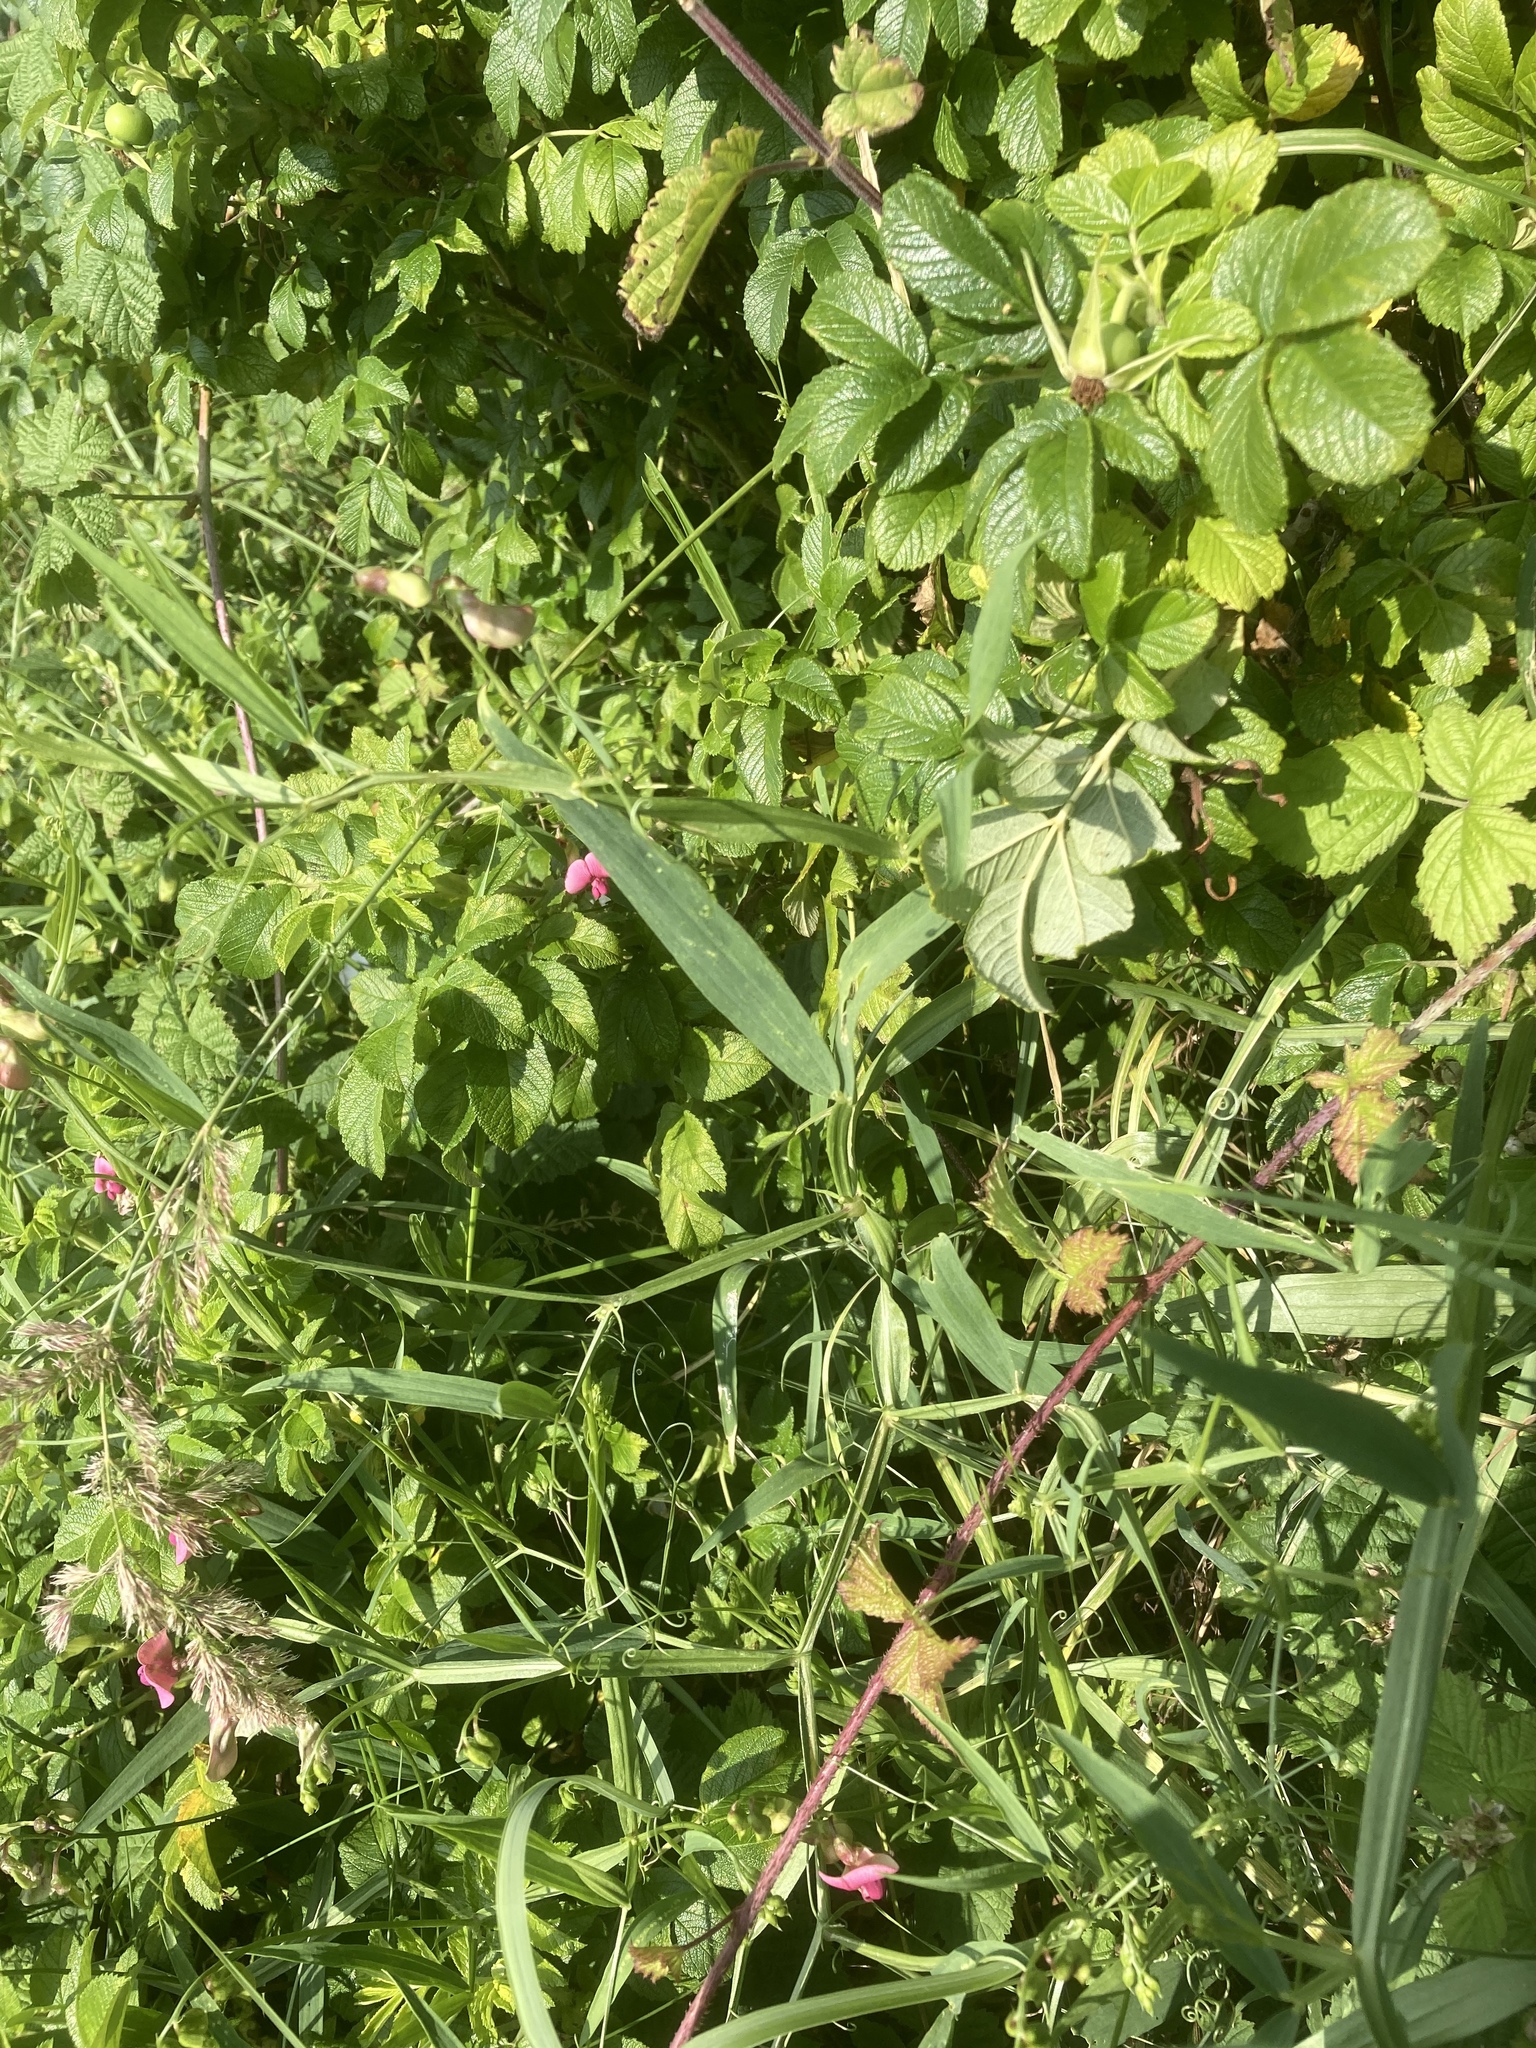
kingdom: Plantae
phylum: Tracheophyta
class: Magnoliopsida
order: Fabales
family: Fabaceae
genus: Lathyrus
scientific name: Lathyrus sylvestris
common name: Flat pea
